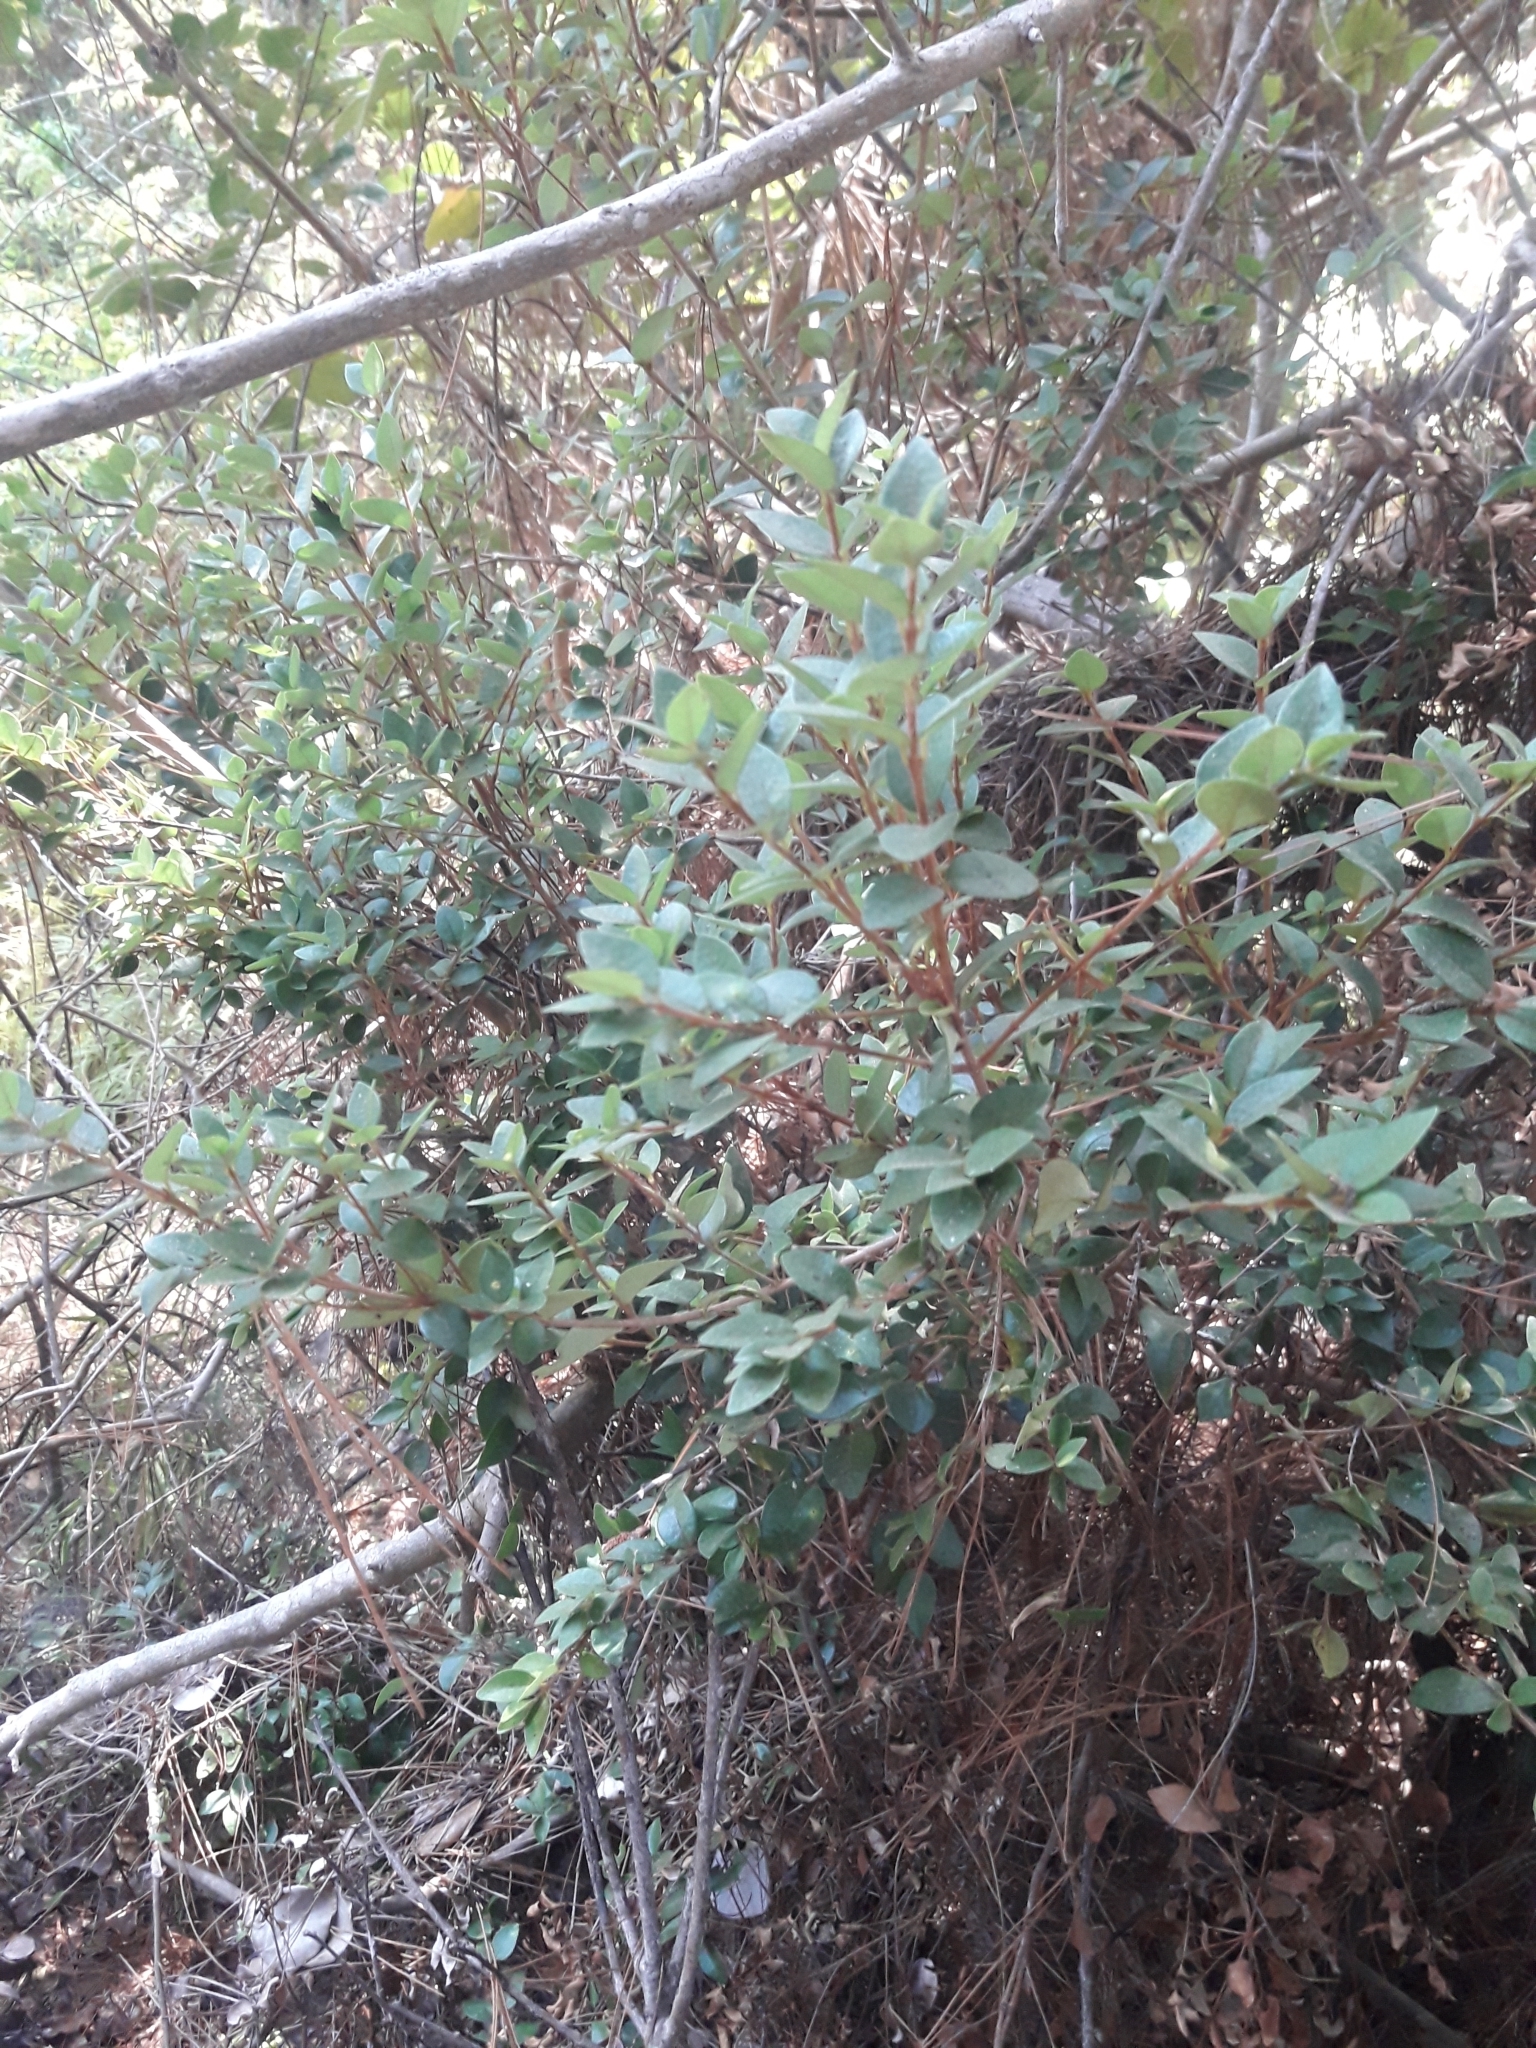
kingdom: Plantae
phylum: Tracheophyta
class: Magnoliopsida
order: Myrtales
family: Myrtaceae
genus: Myrceugenia
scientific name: Myrceugenia obtusa
